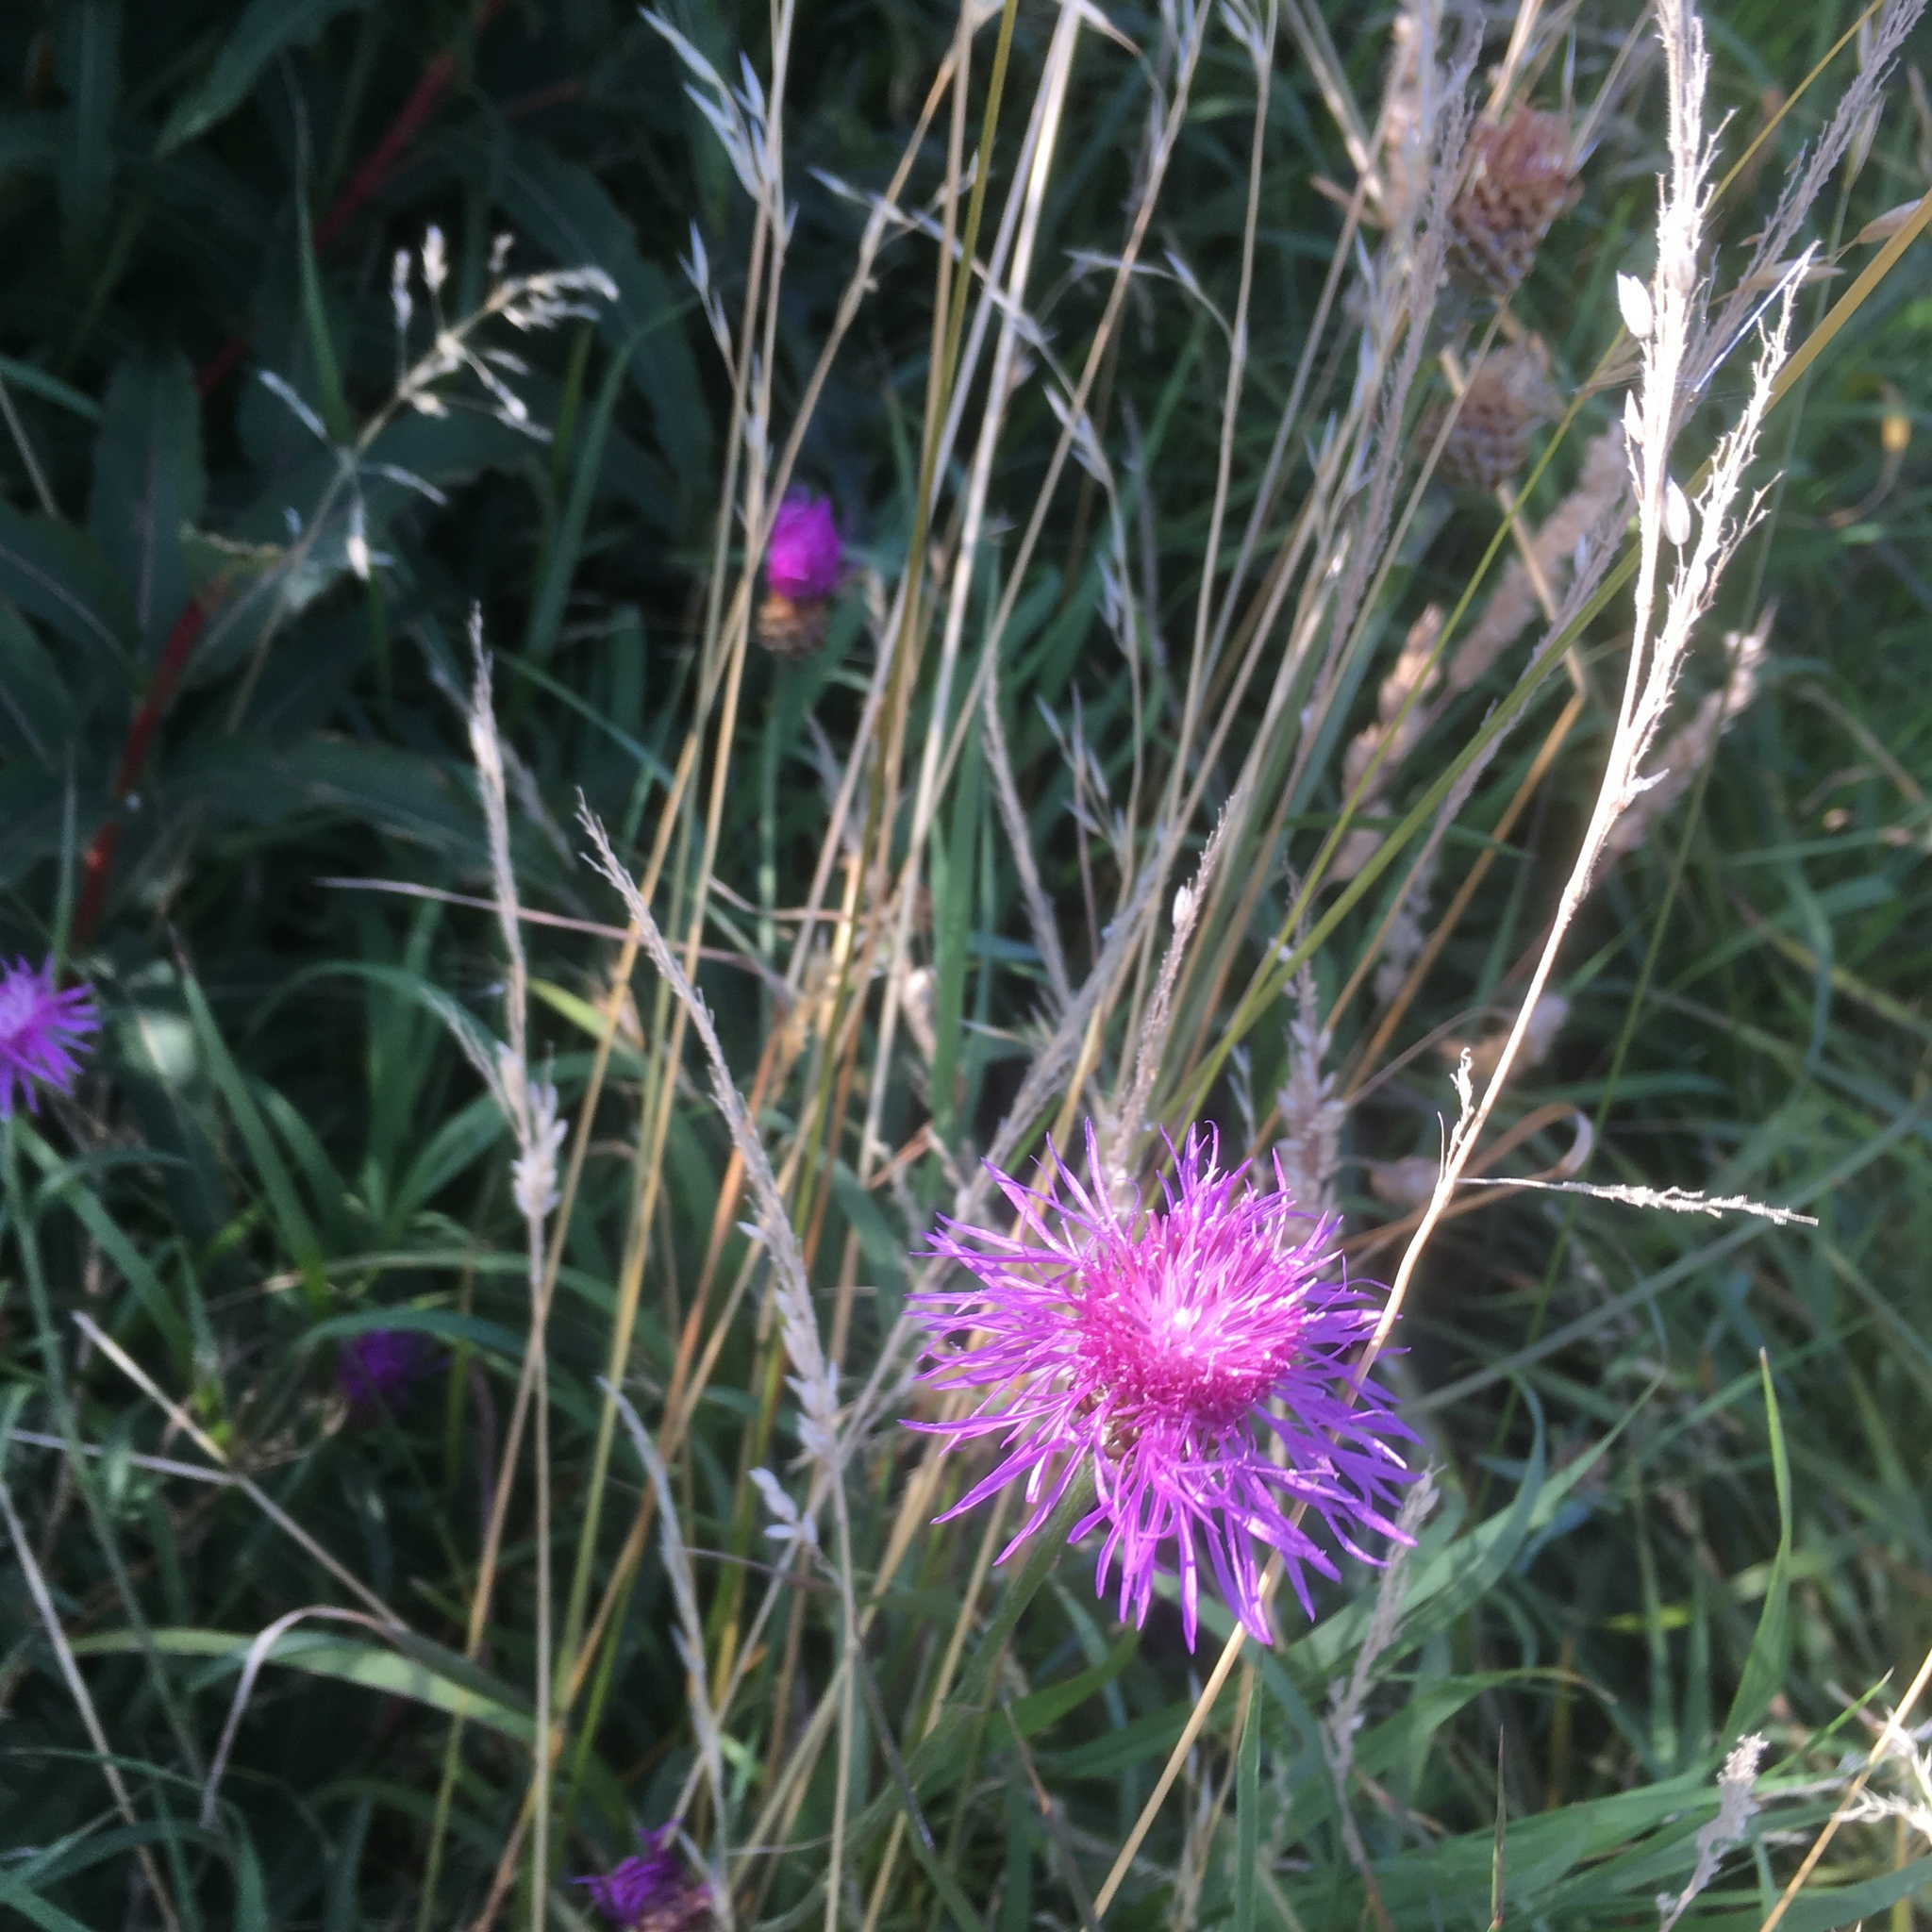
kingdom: Plantae
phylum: Tracheophyta
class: Magnoliopsida
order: Asterales
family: Asteraceae
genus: Centaurea
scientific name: Centaurea jacea
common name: Brown knapweed
